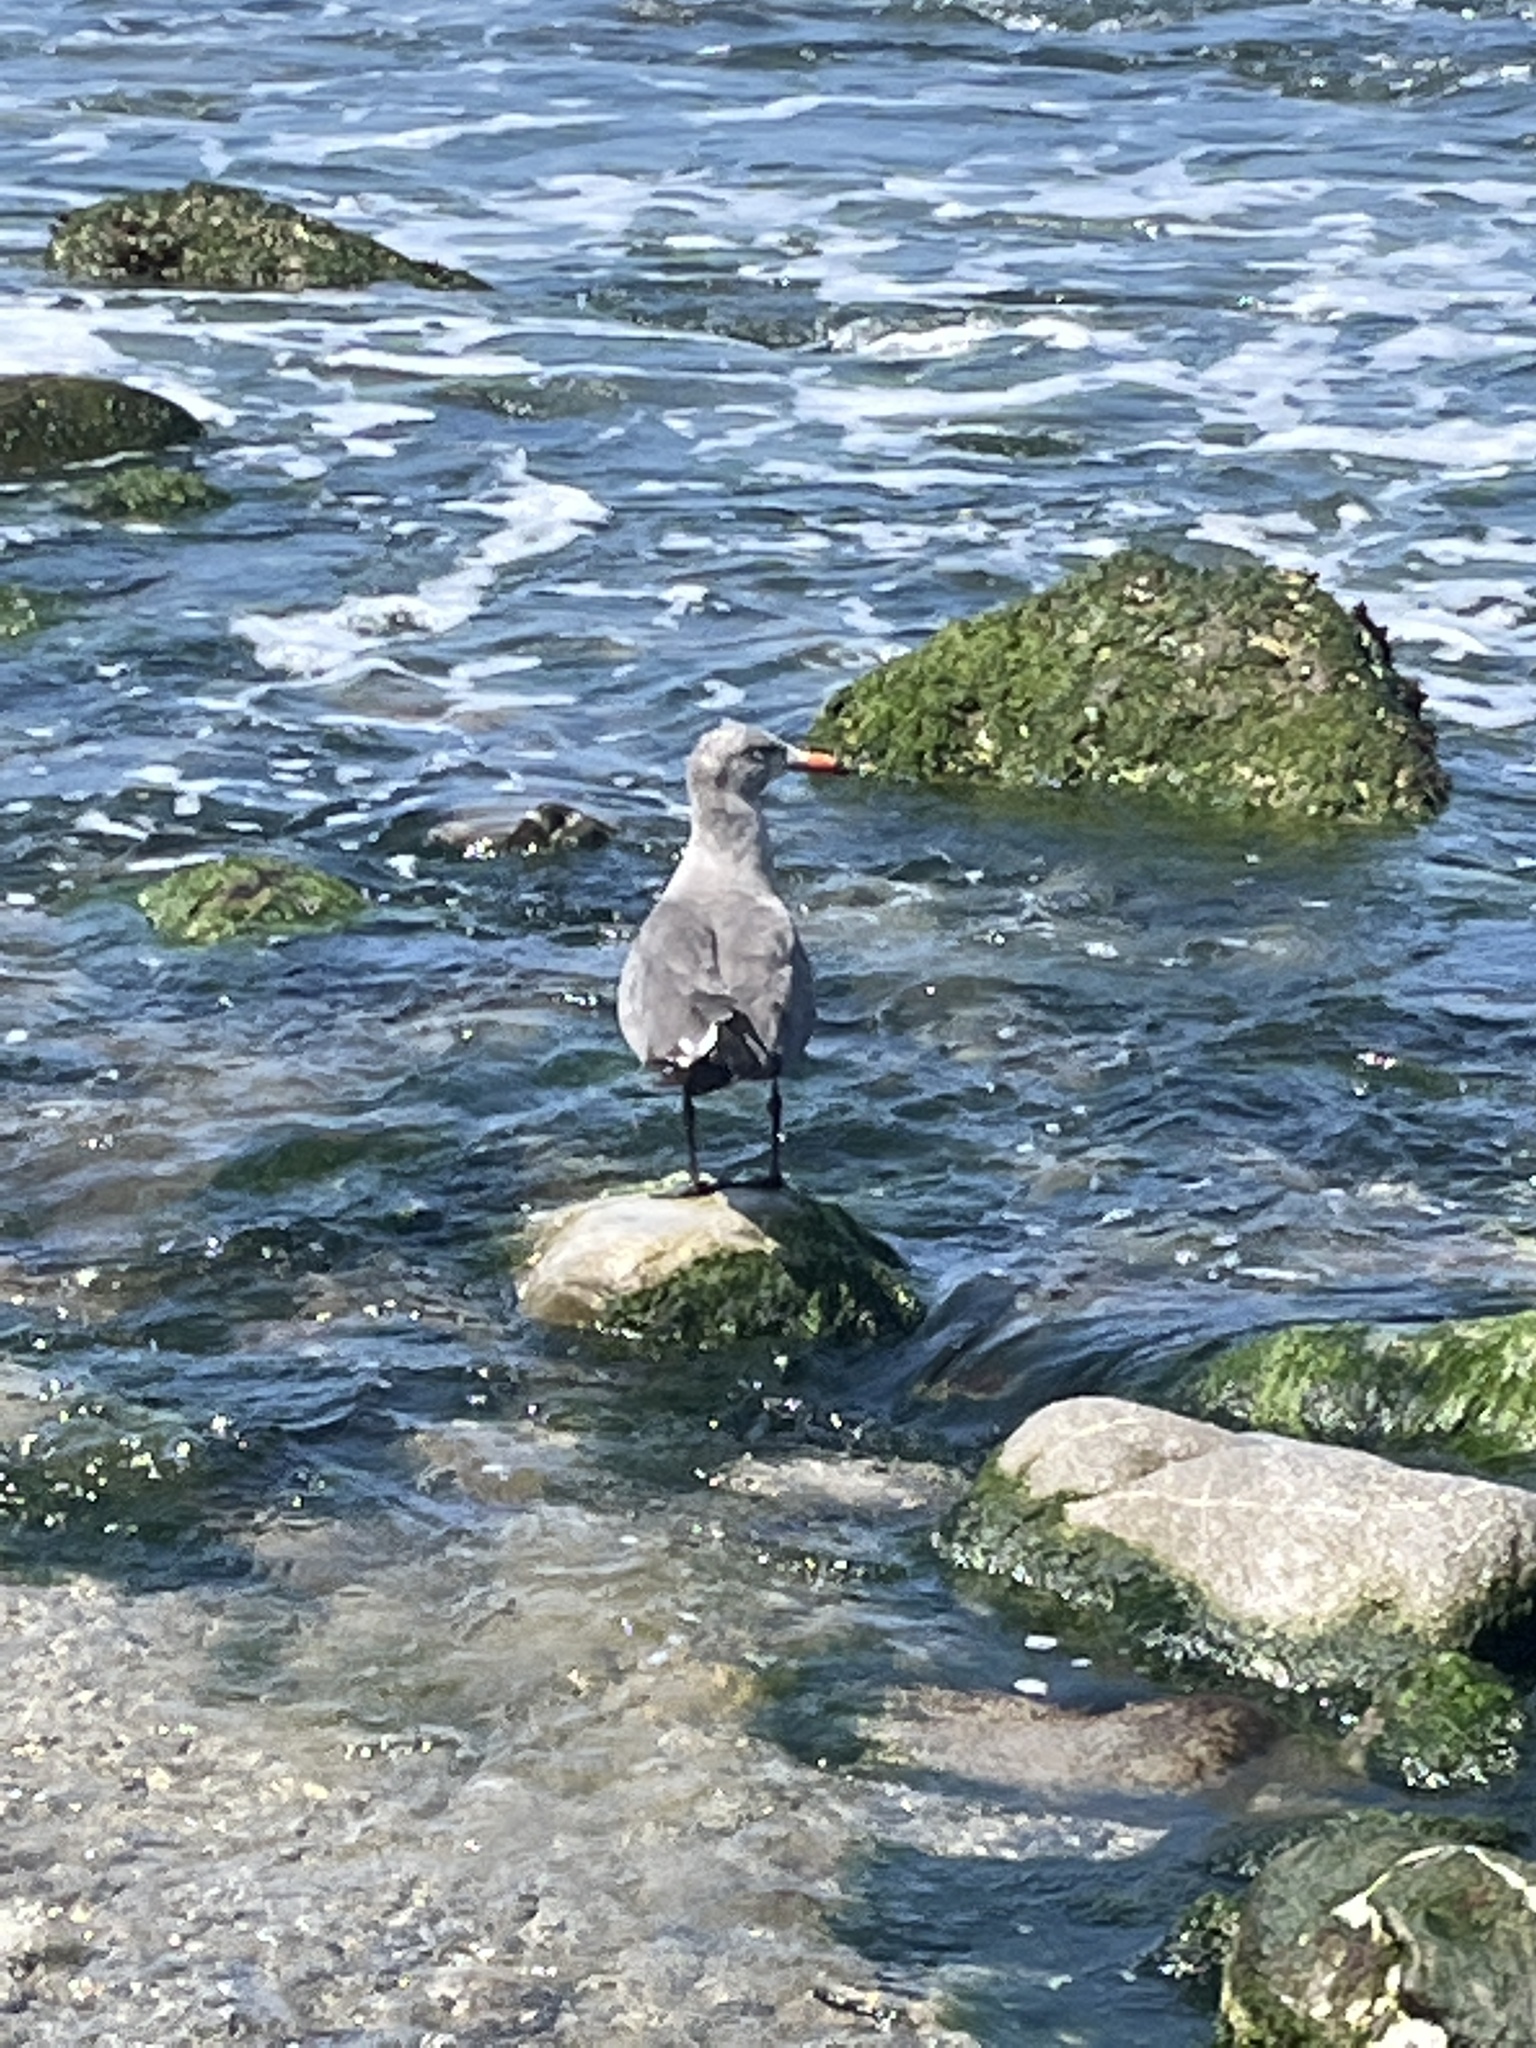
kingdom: Animalia
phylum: Chordata
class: Aves
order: Charadriiformes
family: Laridae
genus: Larus
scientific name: Larus heermanni
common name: Heermann's gull
